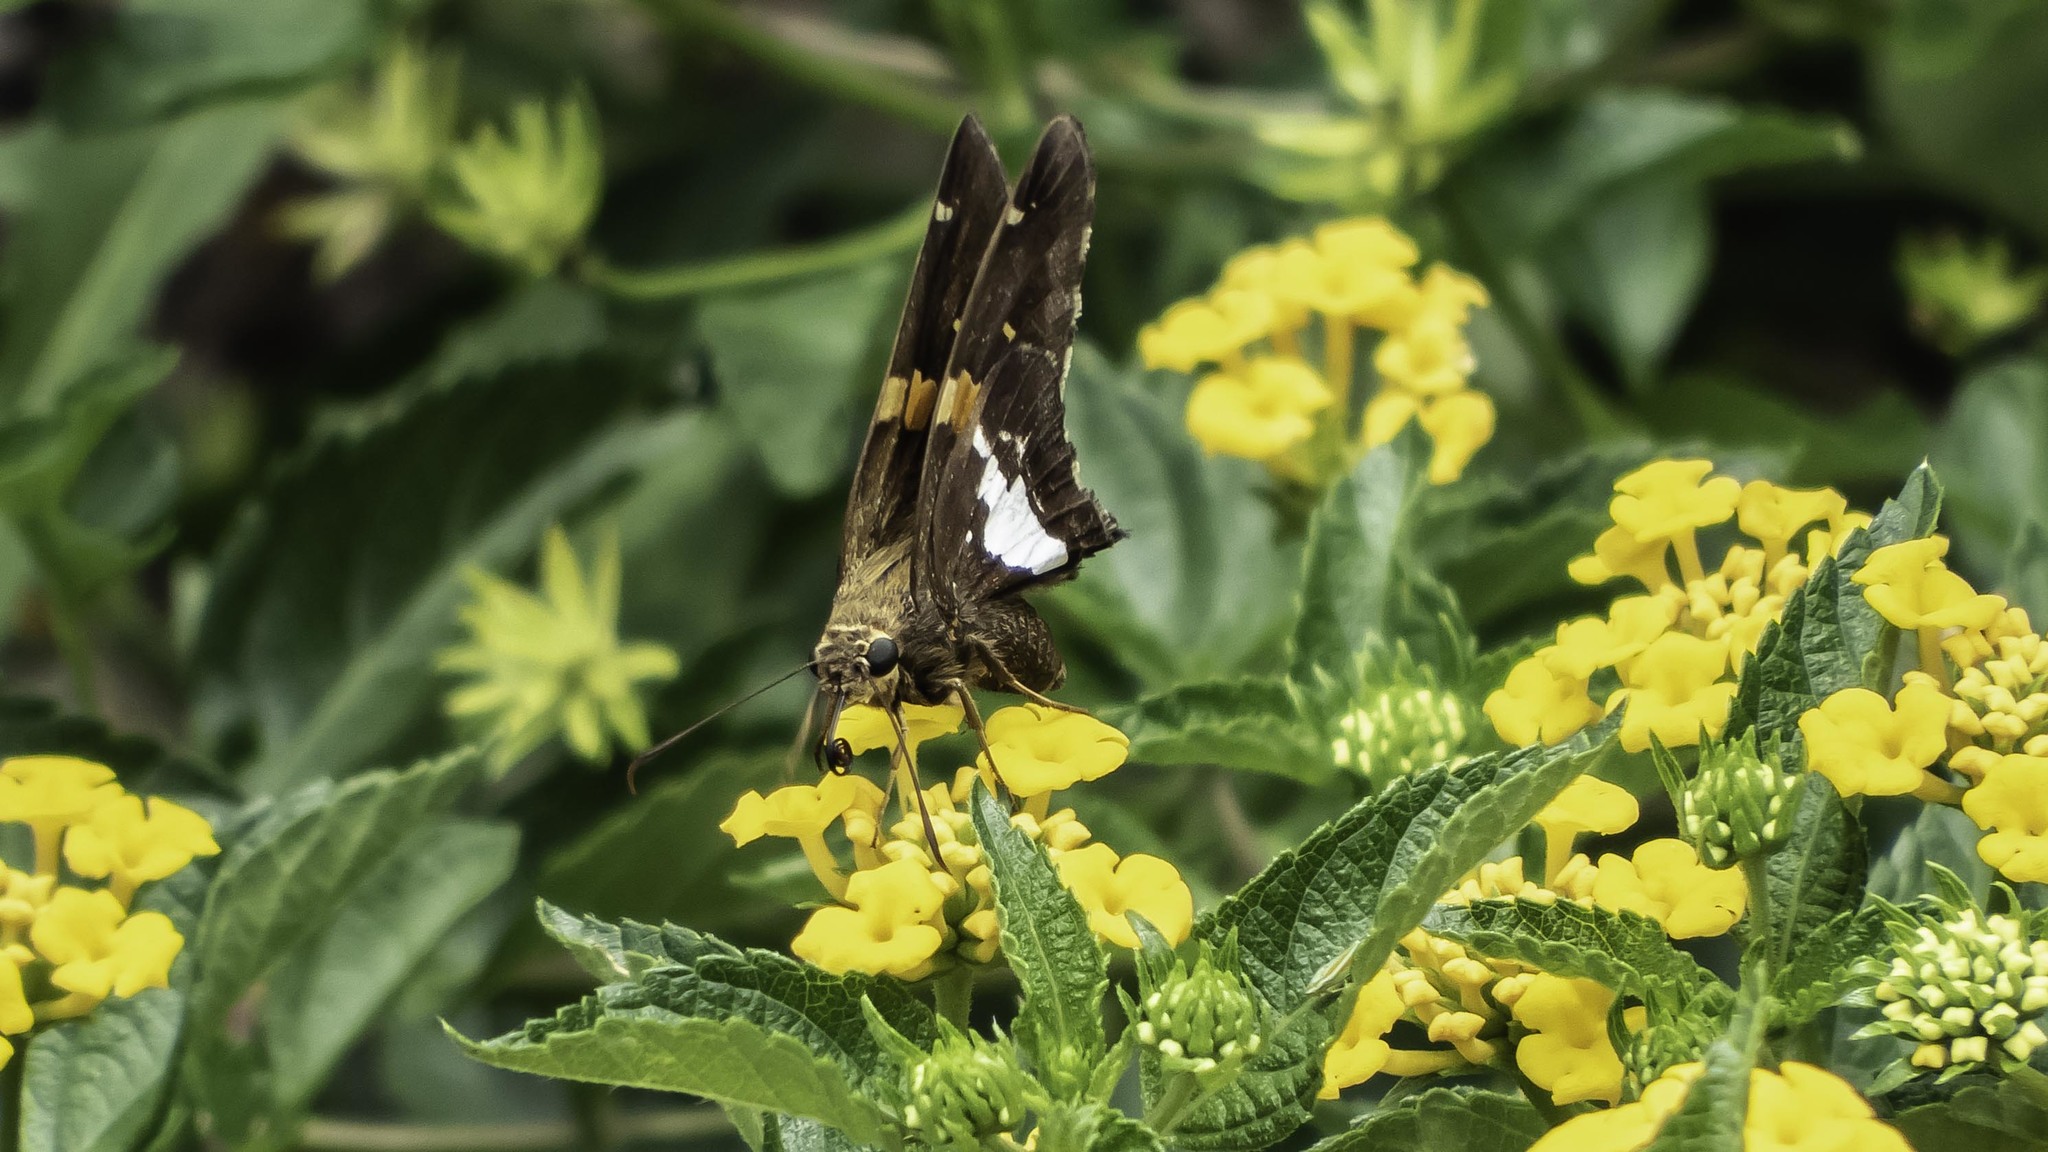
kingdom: Animalia
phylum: Arthropoda
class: Insecta
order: Lepidoptera
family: Hesperiidae
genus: Epargyreus
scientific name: Epargyreus clarus
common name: Silver-spotted skipper
